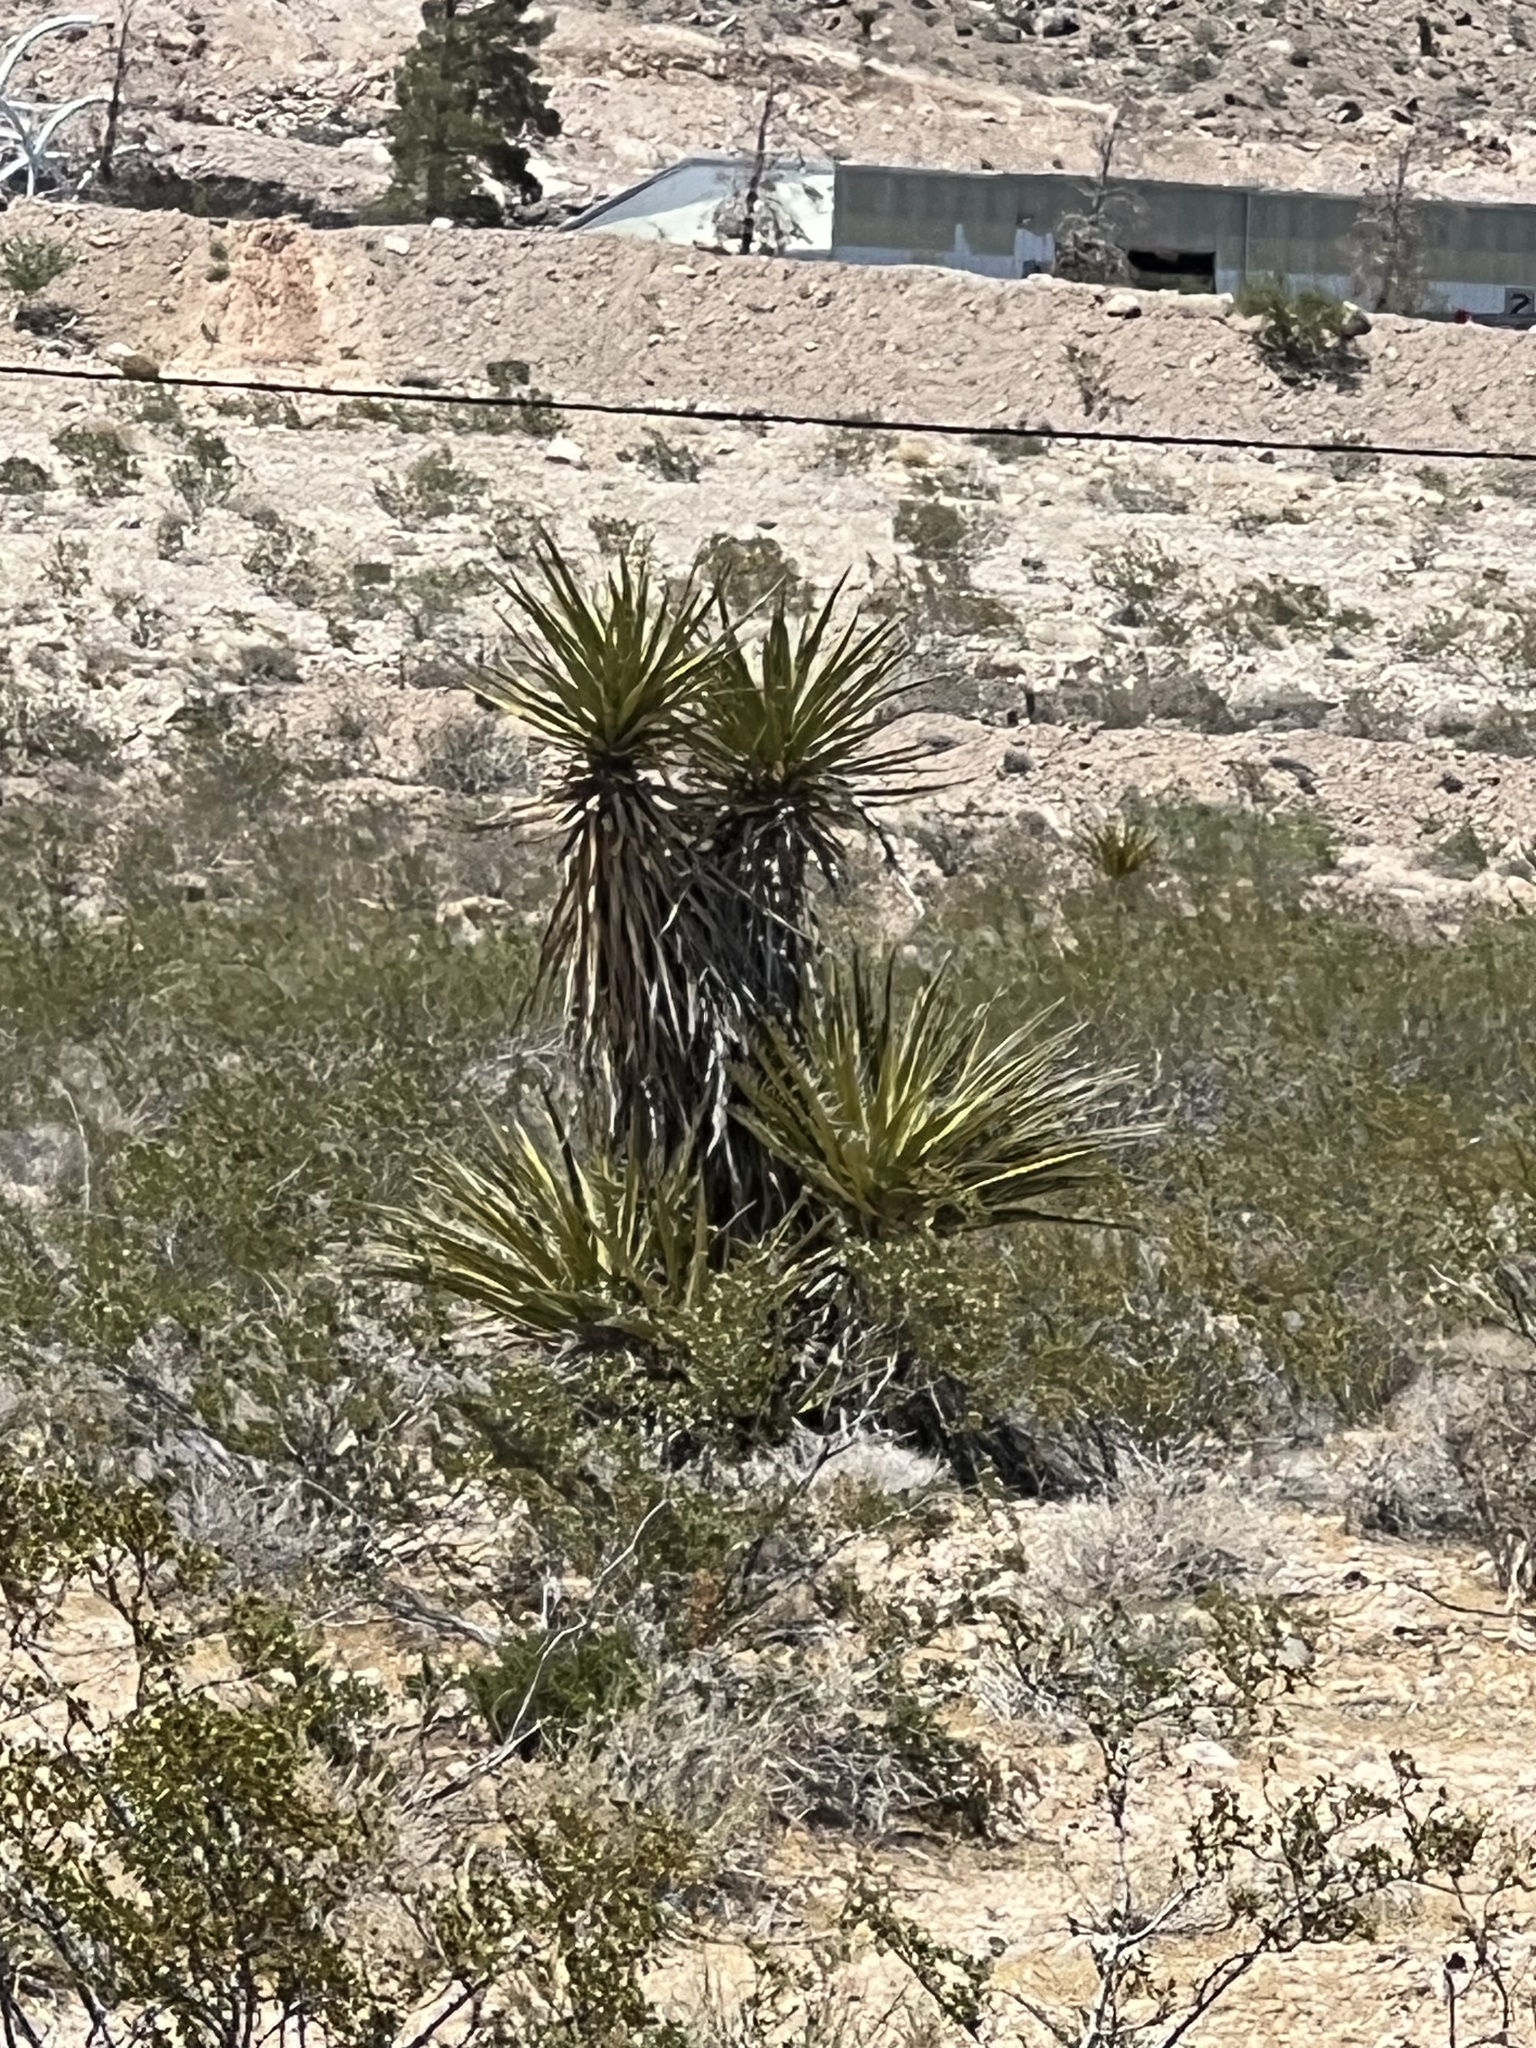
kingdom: Plantae
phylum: Tracheophyta
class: Liliopsida
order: Asparagales
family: Asparagaceae
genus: Yucca
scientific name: Yucca schidigera
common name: Mojave yucca
